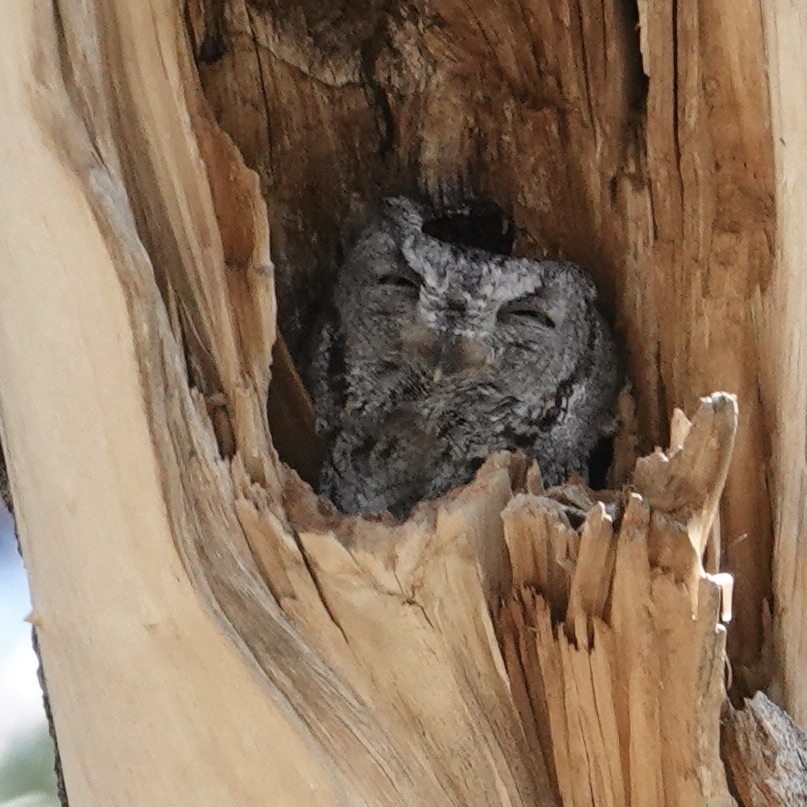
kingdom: Animalia
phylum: Chordata
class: Aves
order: Strigiformes
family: Strigidae
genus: Megascops
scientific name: Megascops kennicottii
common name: Western screech-owl
